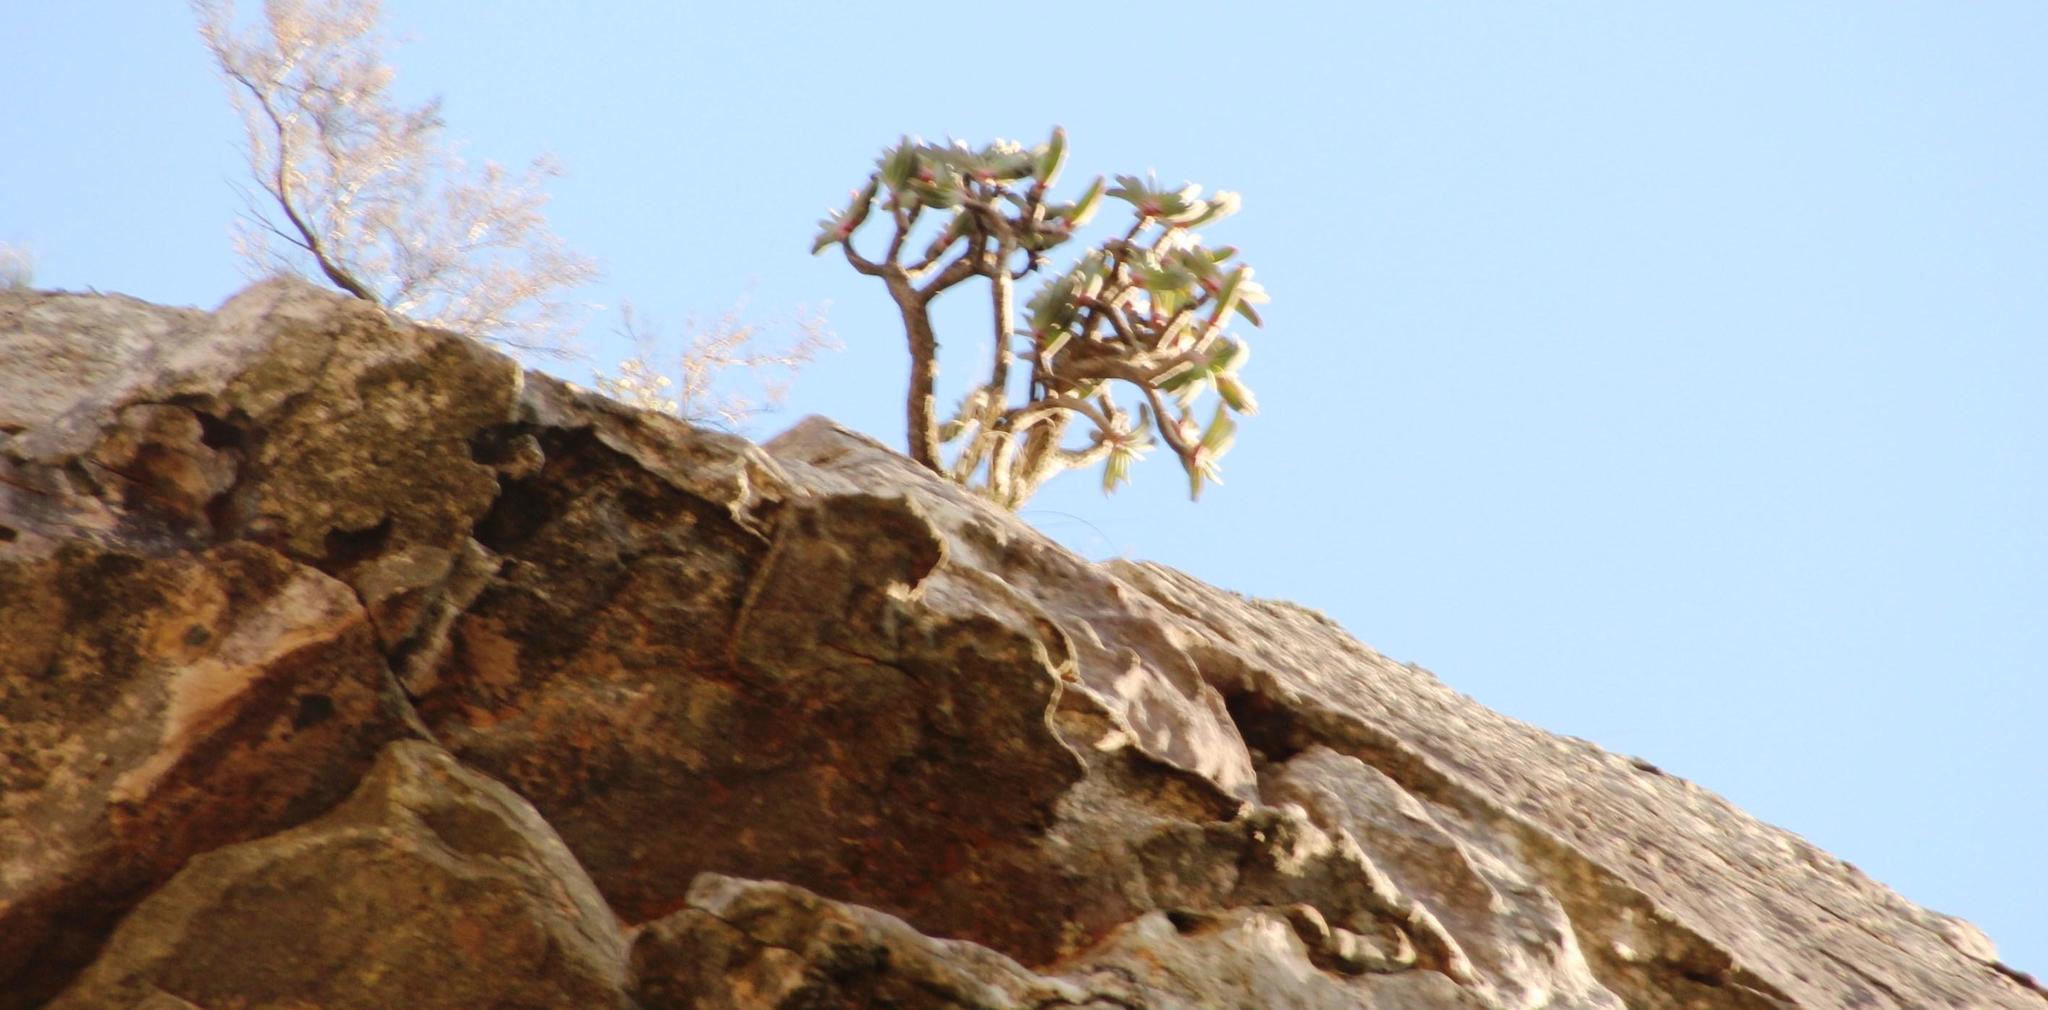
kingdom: Plantae
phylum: Tracheophyta
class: Liliopsida
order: Asparagales
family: Asphodelaceae
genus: Kumara
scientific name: Kumara plicatilis
